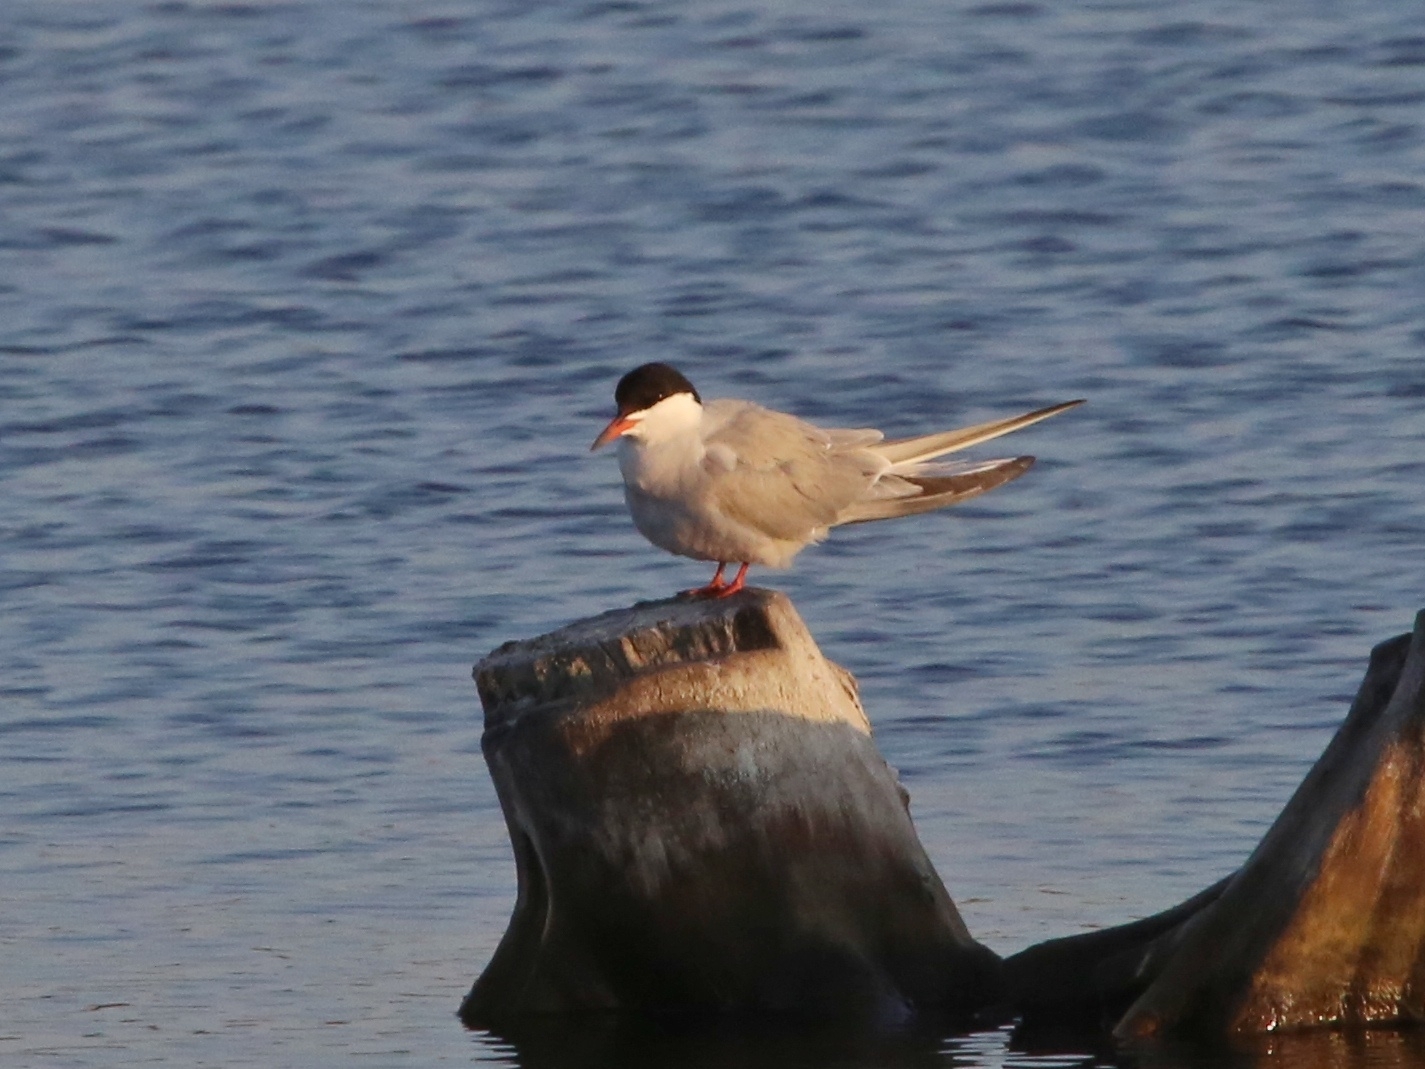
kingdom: Animalia
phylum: Chordata
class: Aves
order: Charadriiformes
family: Laridae
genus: Sterna
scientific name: Sterna hirundo
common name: Common tern
